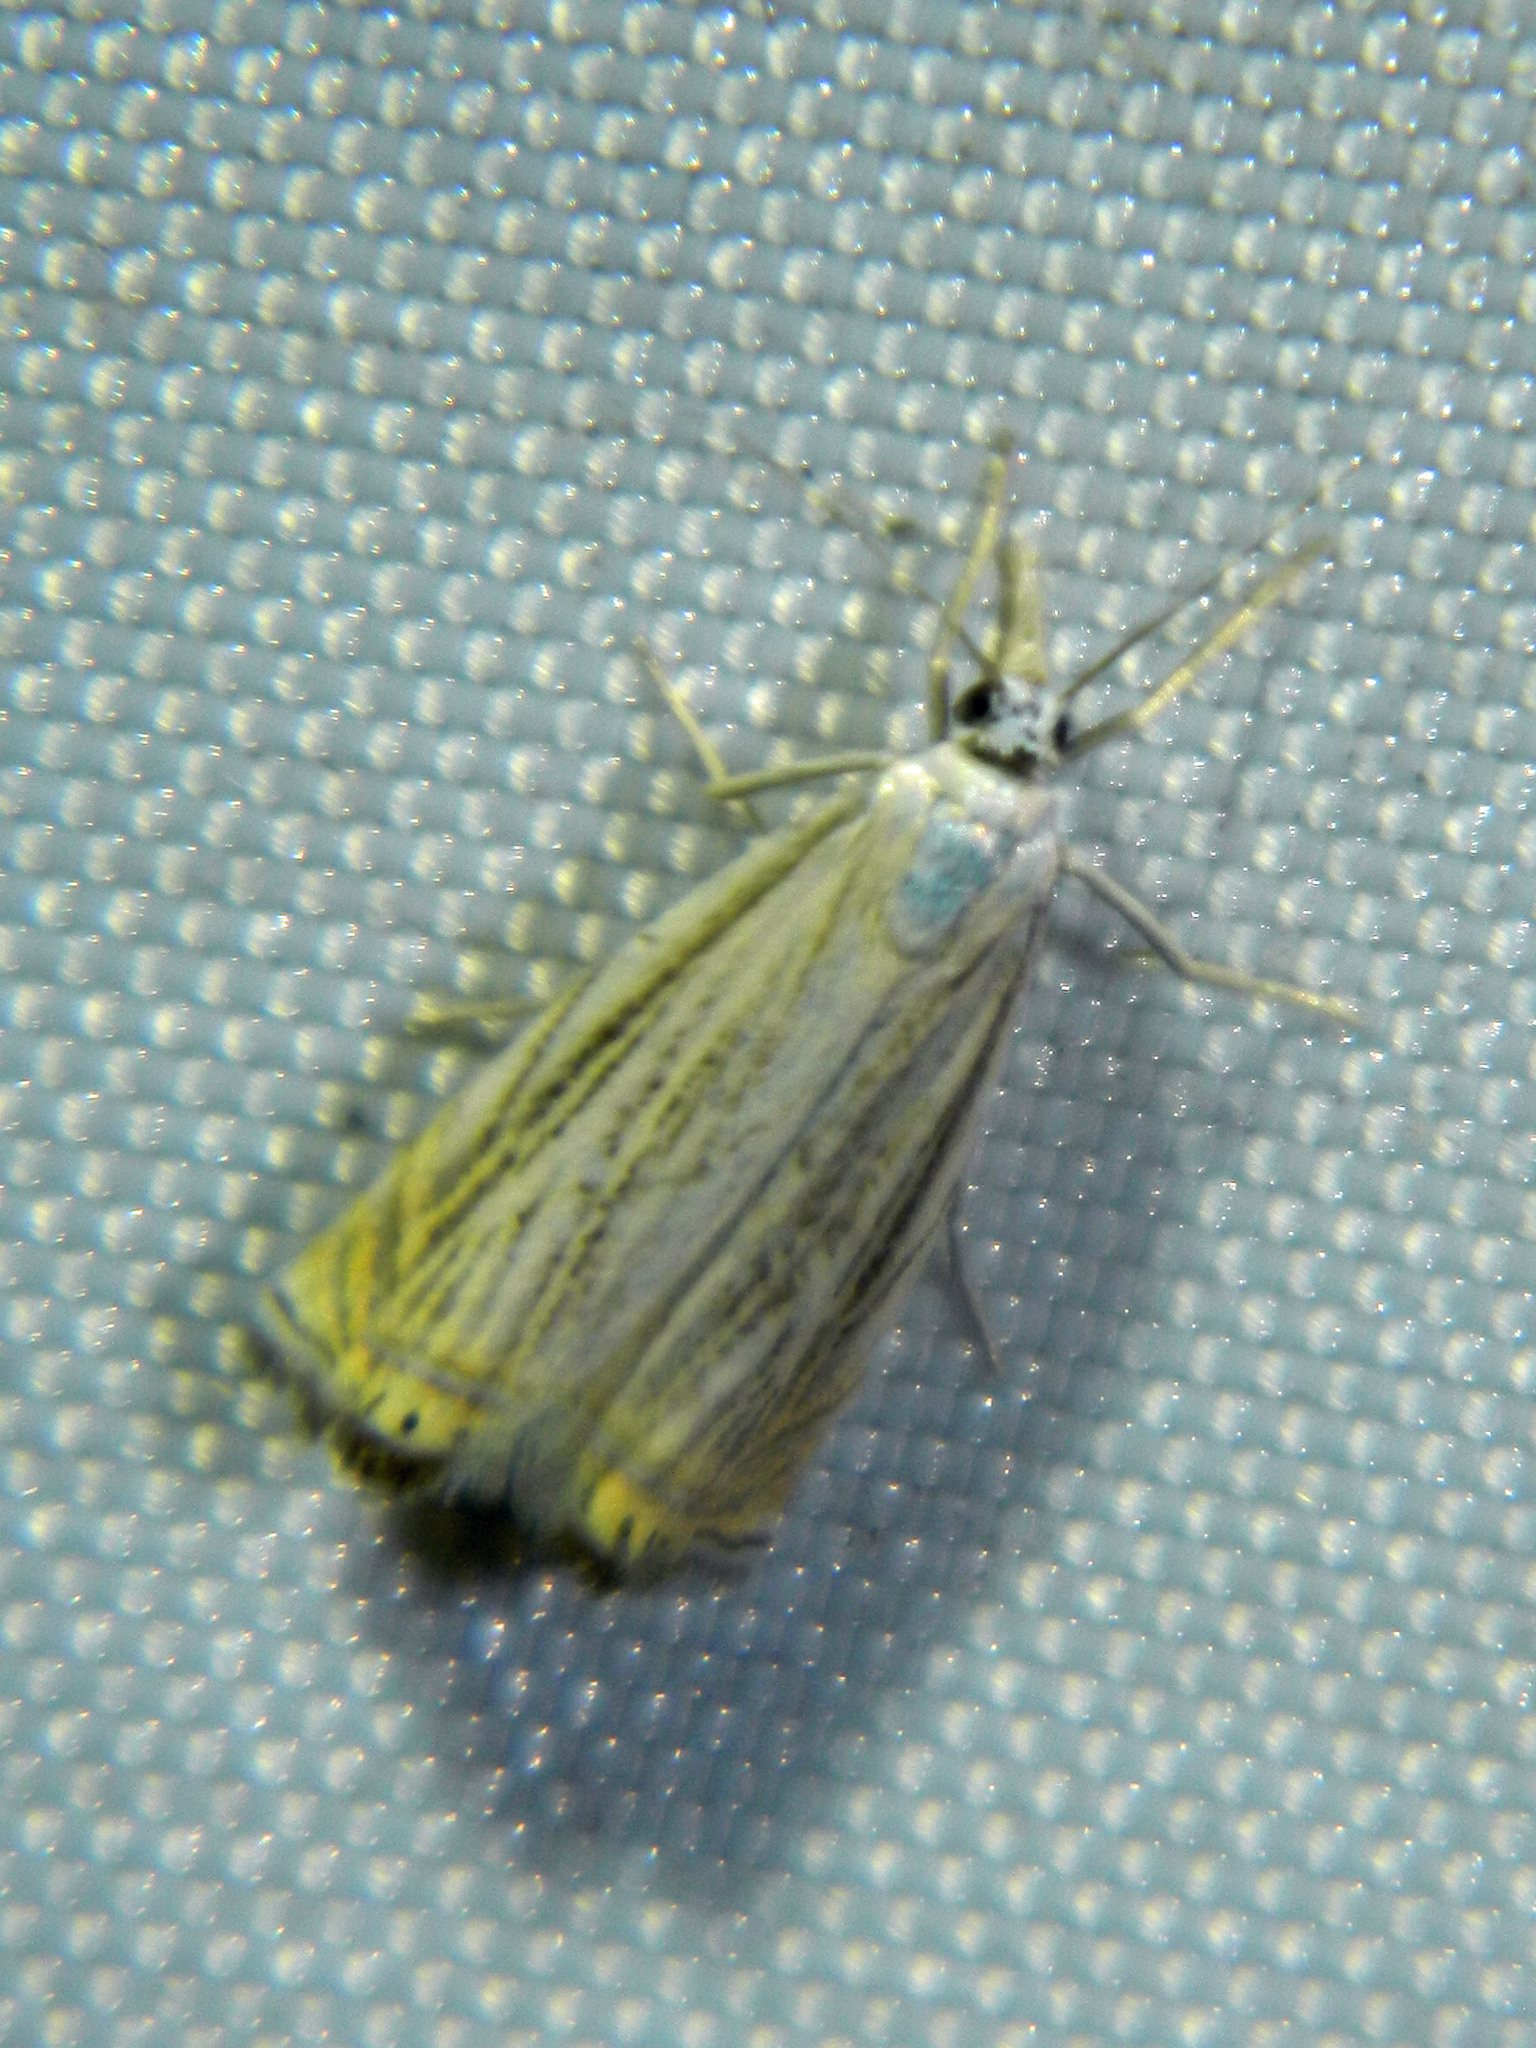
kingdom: Animalia
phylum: Arthropoda
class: Insecta
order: Lepidoptera
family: Crambidae
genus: Chrysoteuchia
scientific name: Chrysoteuchia topiarius
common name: Topiary grass-veneer
